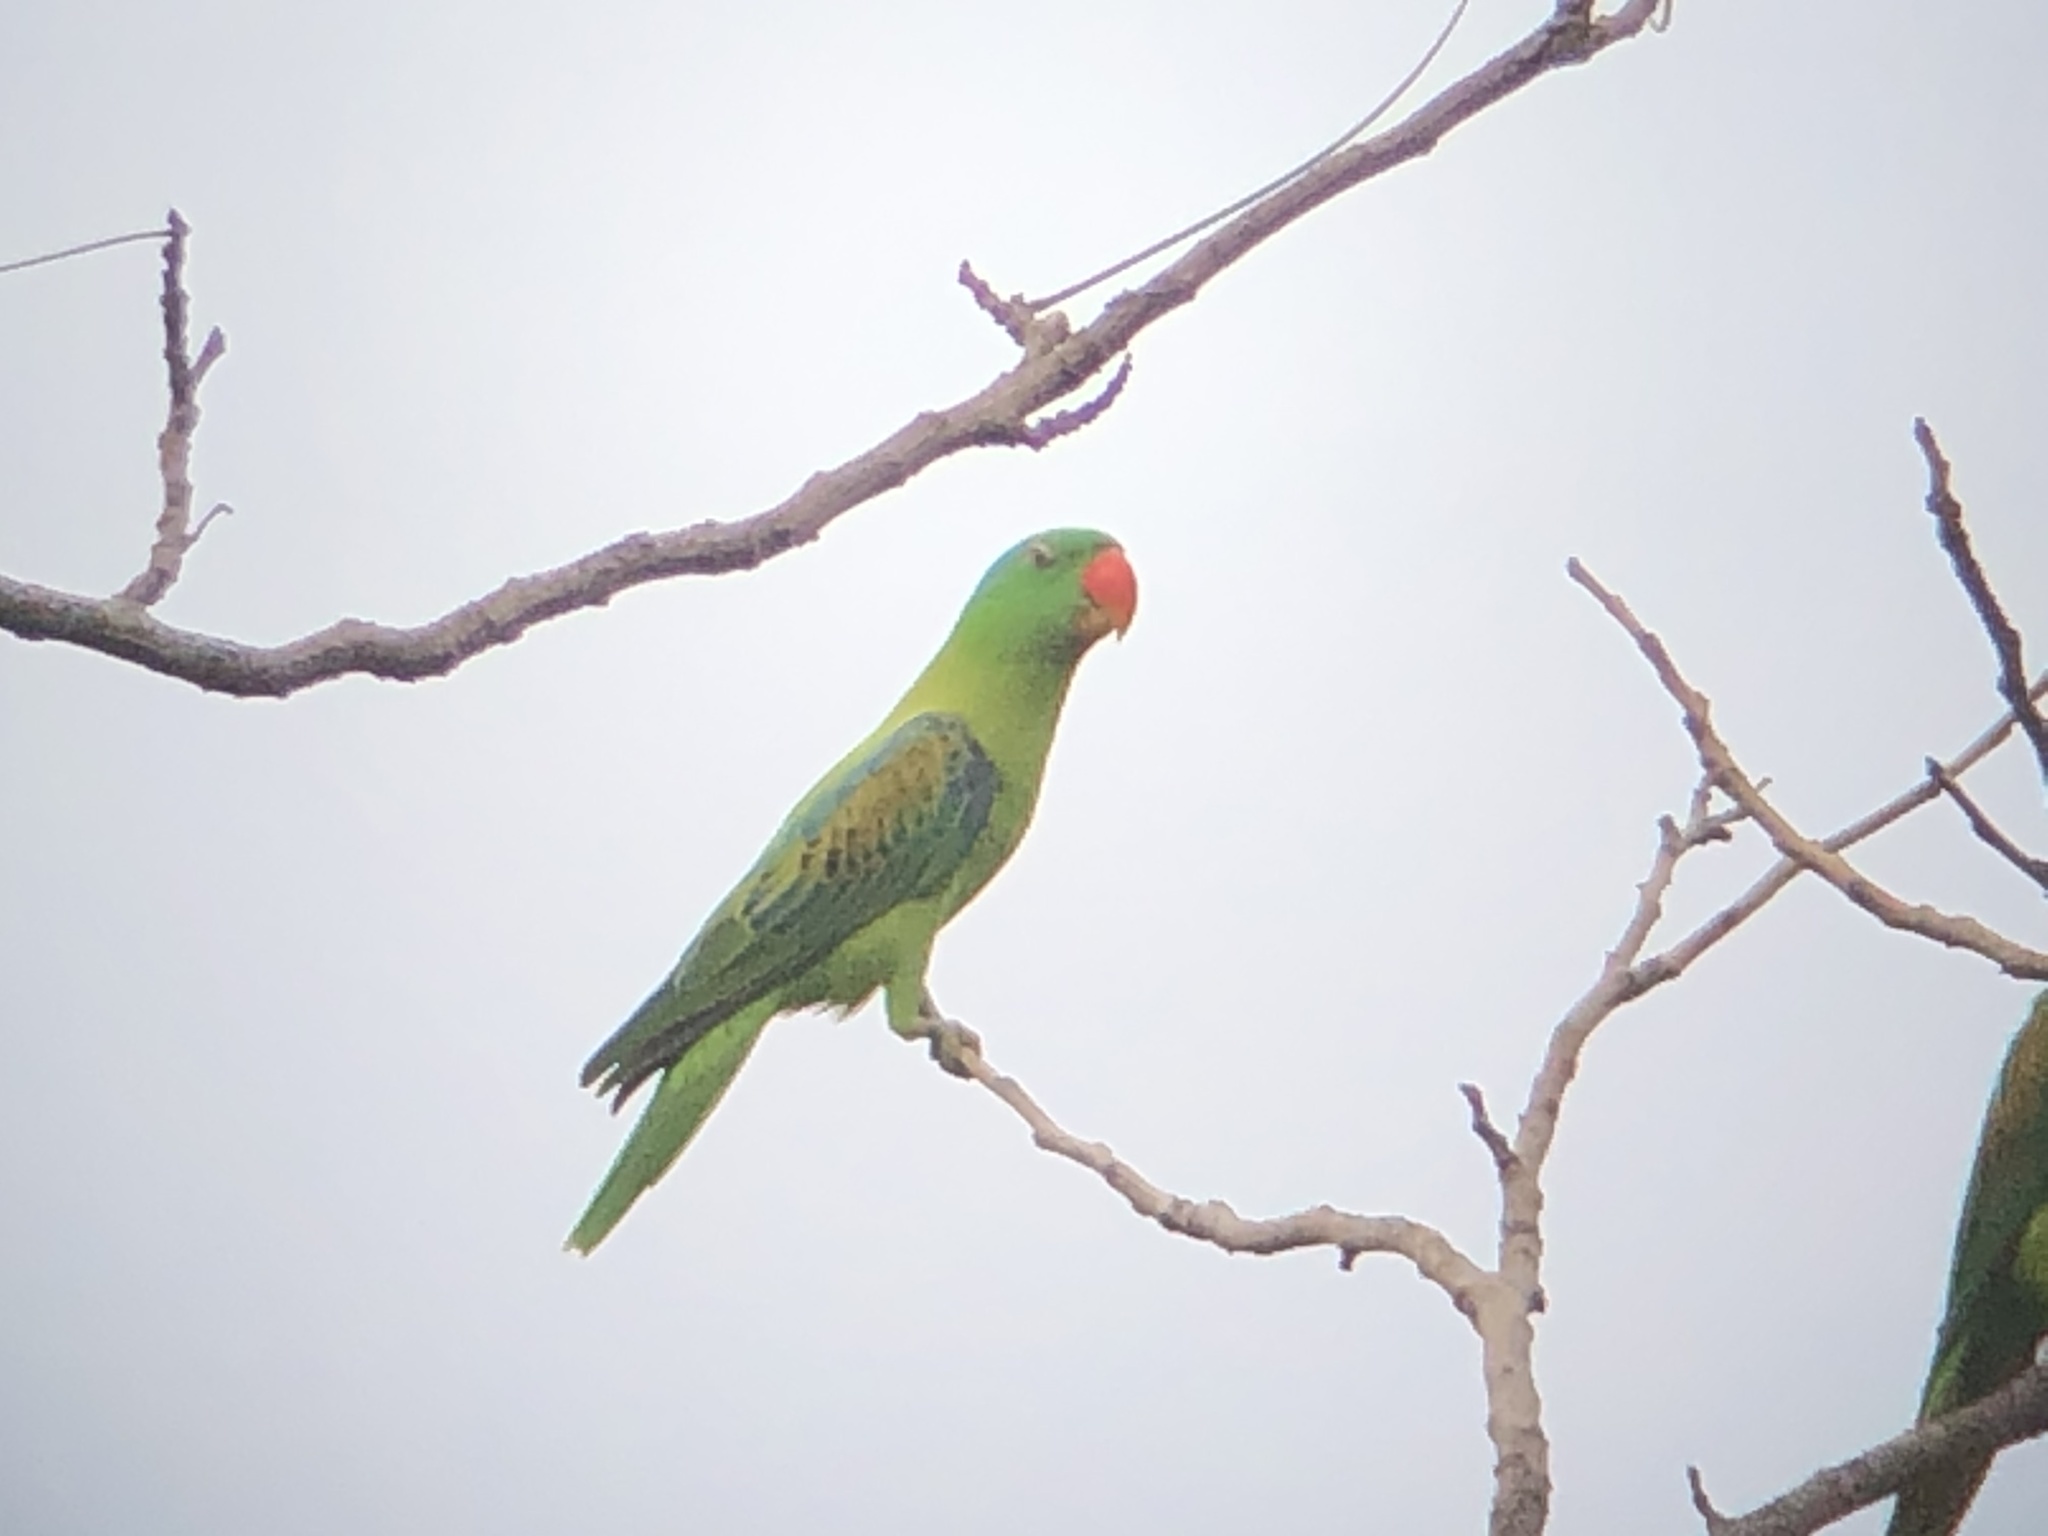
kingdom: Animalia
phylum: Chordata
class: Aves
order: Psittaciformes
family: Psittacidae
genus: Tanygnathus
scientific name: Tanygnathus lucionensis
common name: Blue-naped parrot
